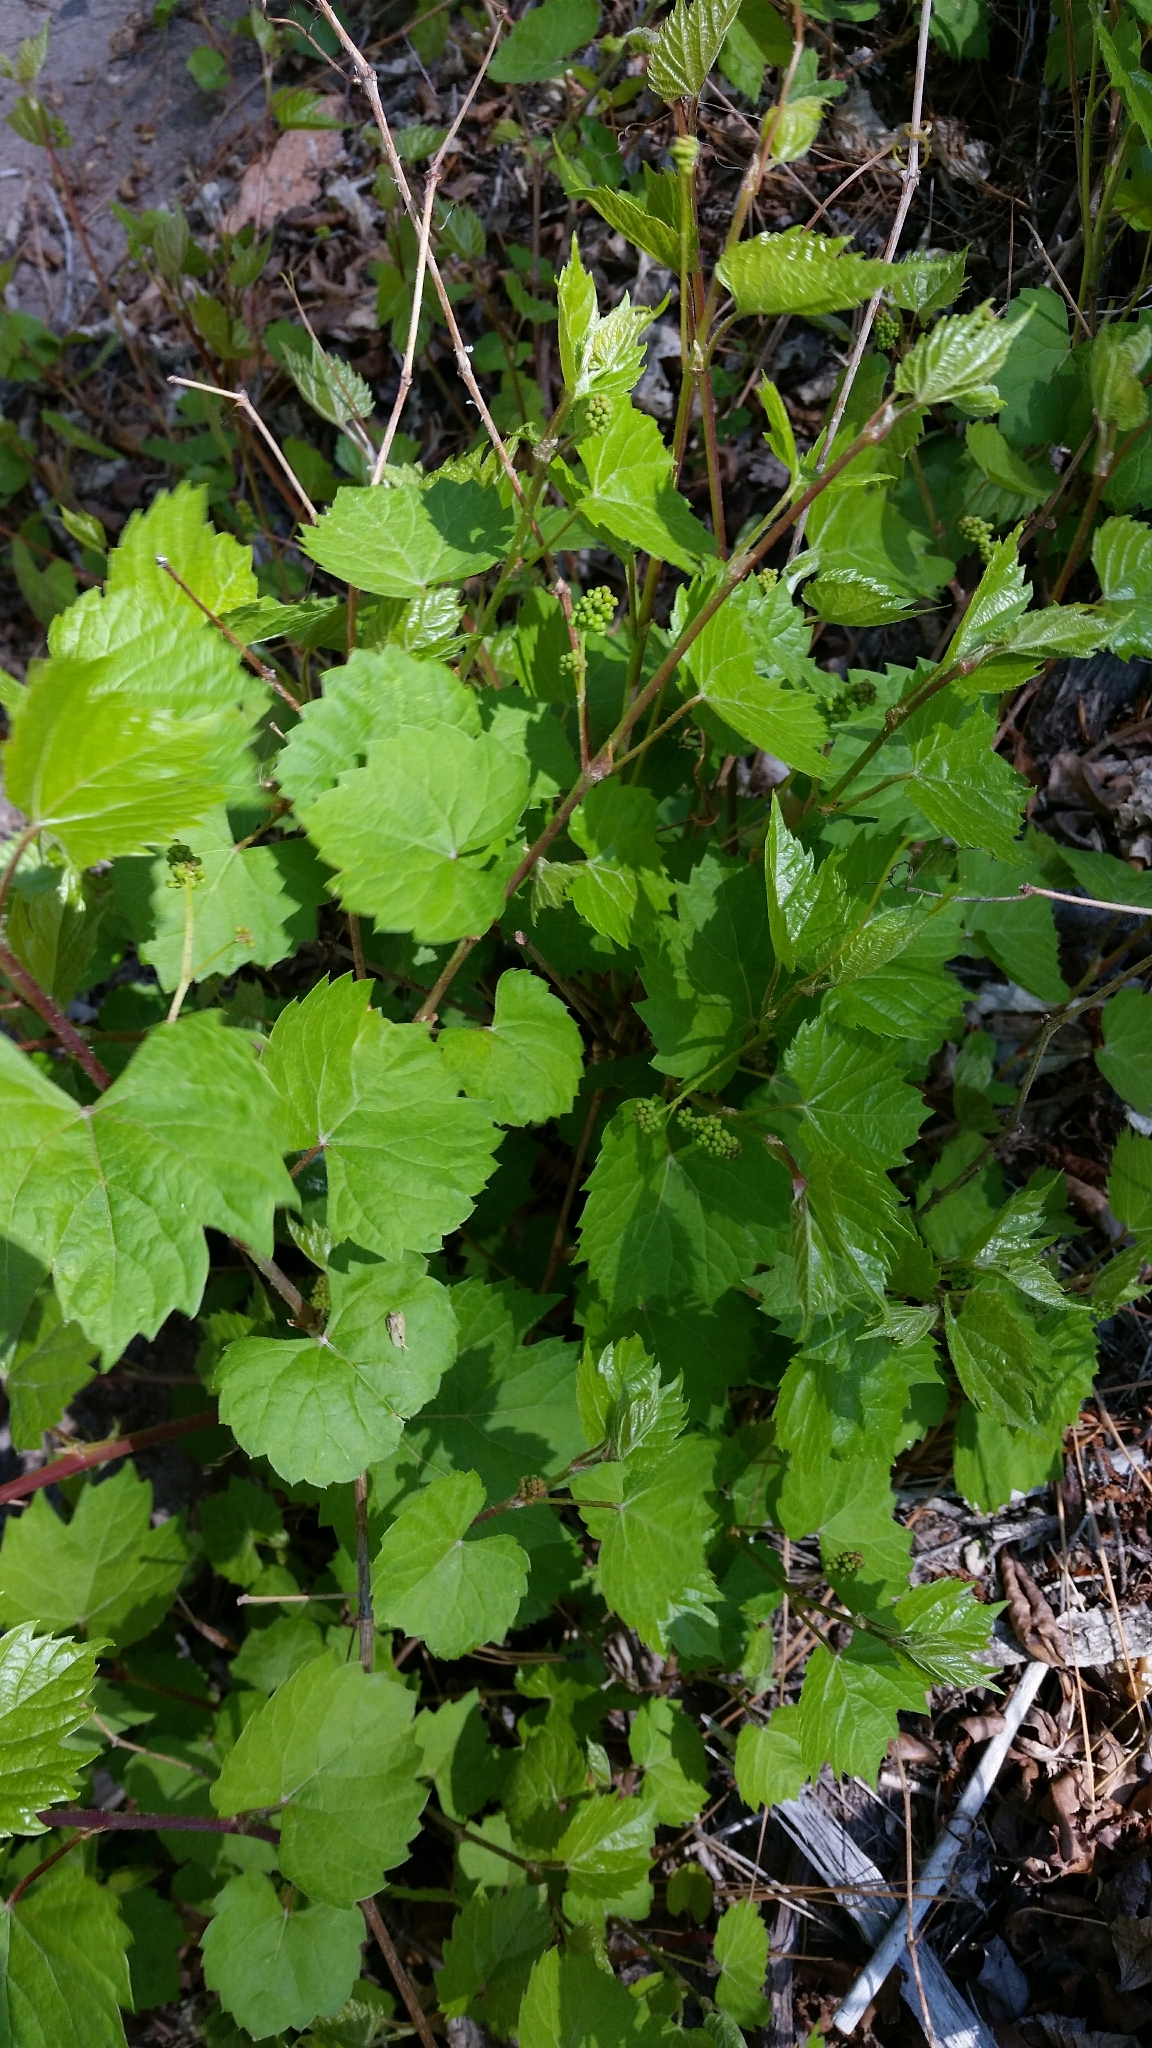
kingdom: Plantae
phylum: Tracheophyta
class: Magnoliopsida
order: Vitales
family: Vitaceae
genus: Vitis
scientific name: Vitis arizonica
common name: Canyon grape
